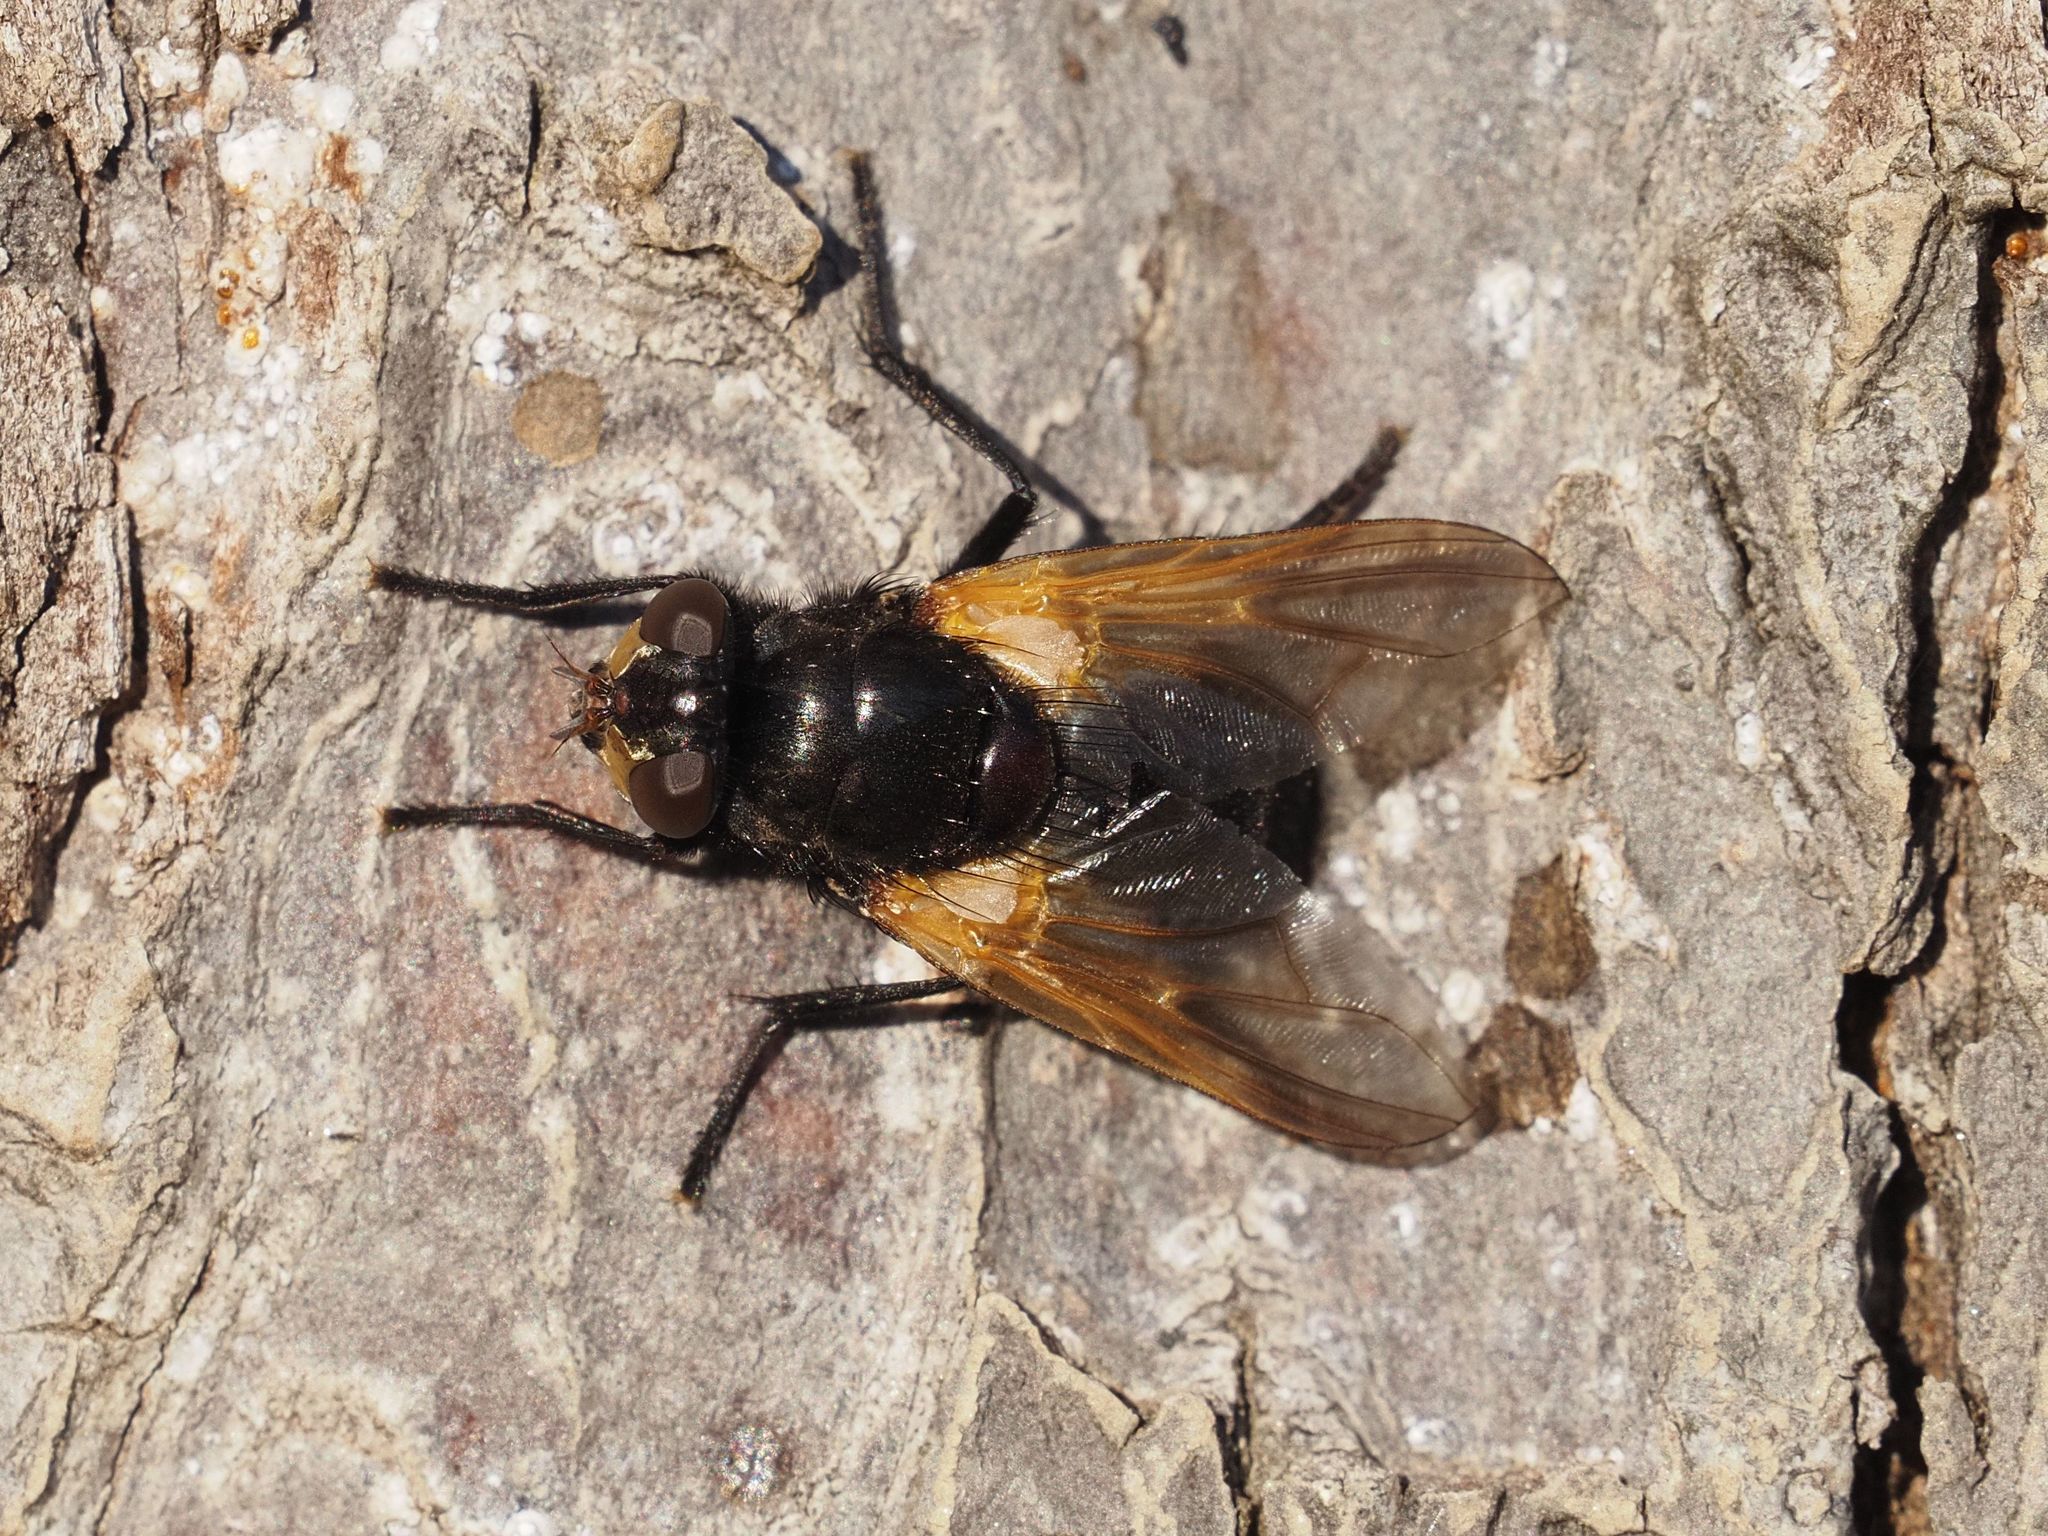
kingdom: Animalia
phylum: Arthropoda
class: Insecta
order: Diptera
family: Muscidae
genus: Mesembrina
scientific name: Mesembrina meridiana
